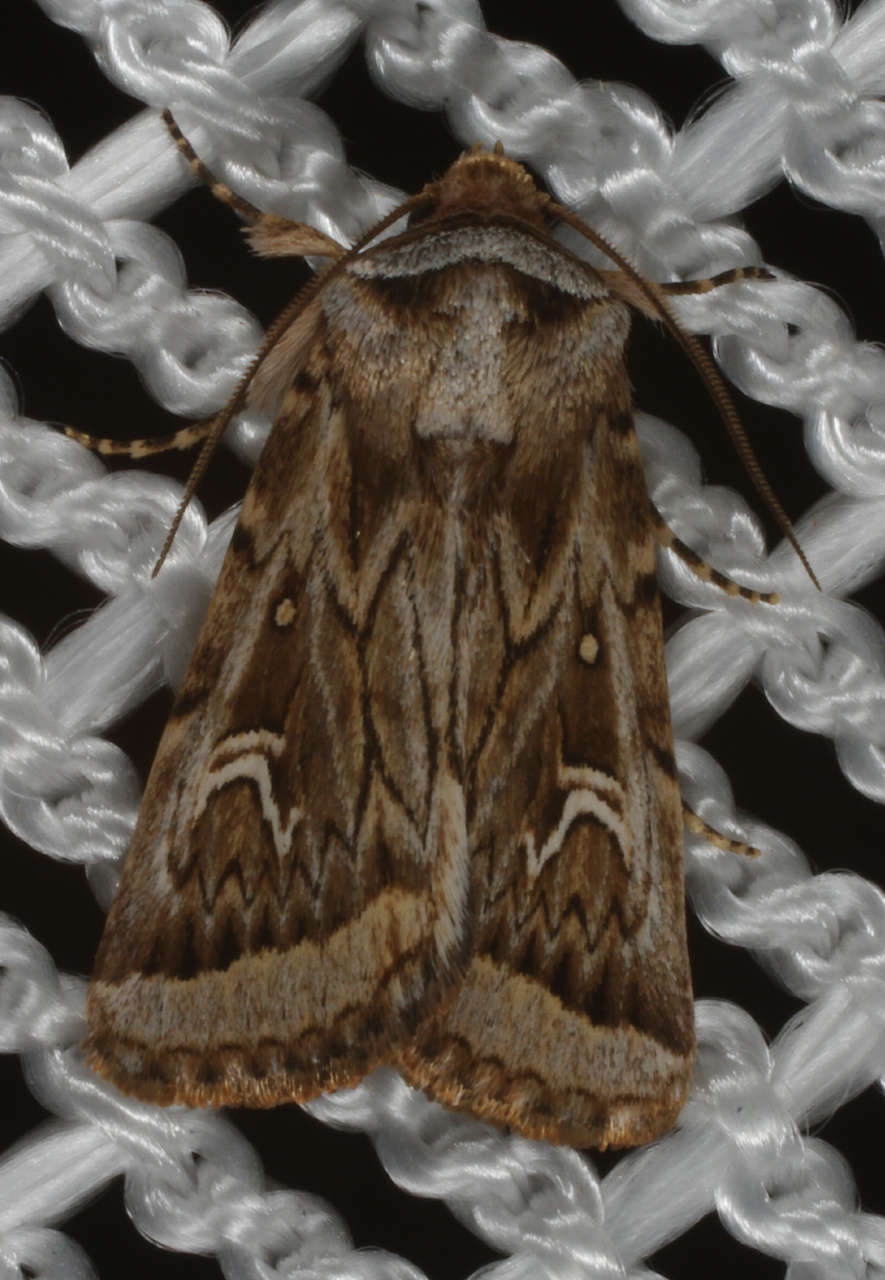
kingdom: Animalia
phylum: Arthropoda
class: Insecta
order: Lepidoptera
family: Noctuidae
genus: Proteuxoa
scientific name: Proteuxoa angasi
